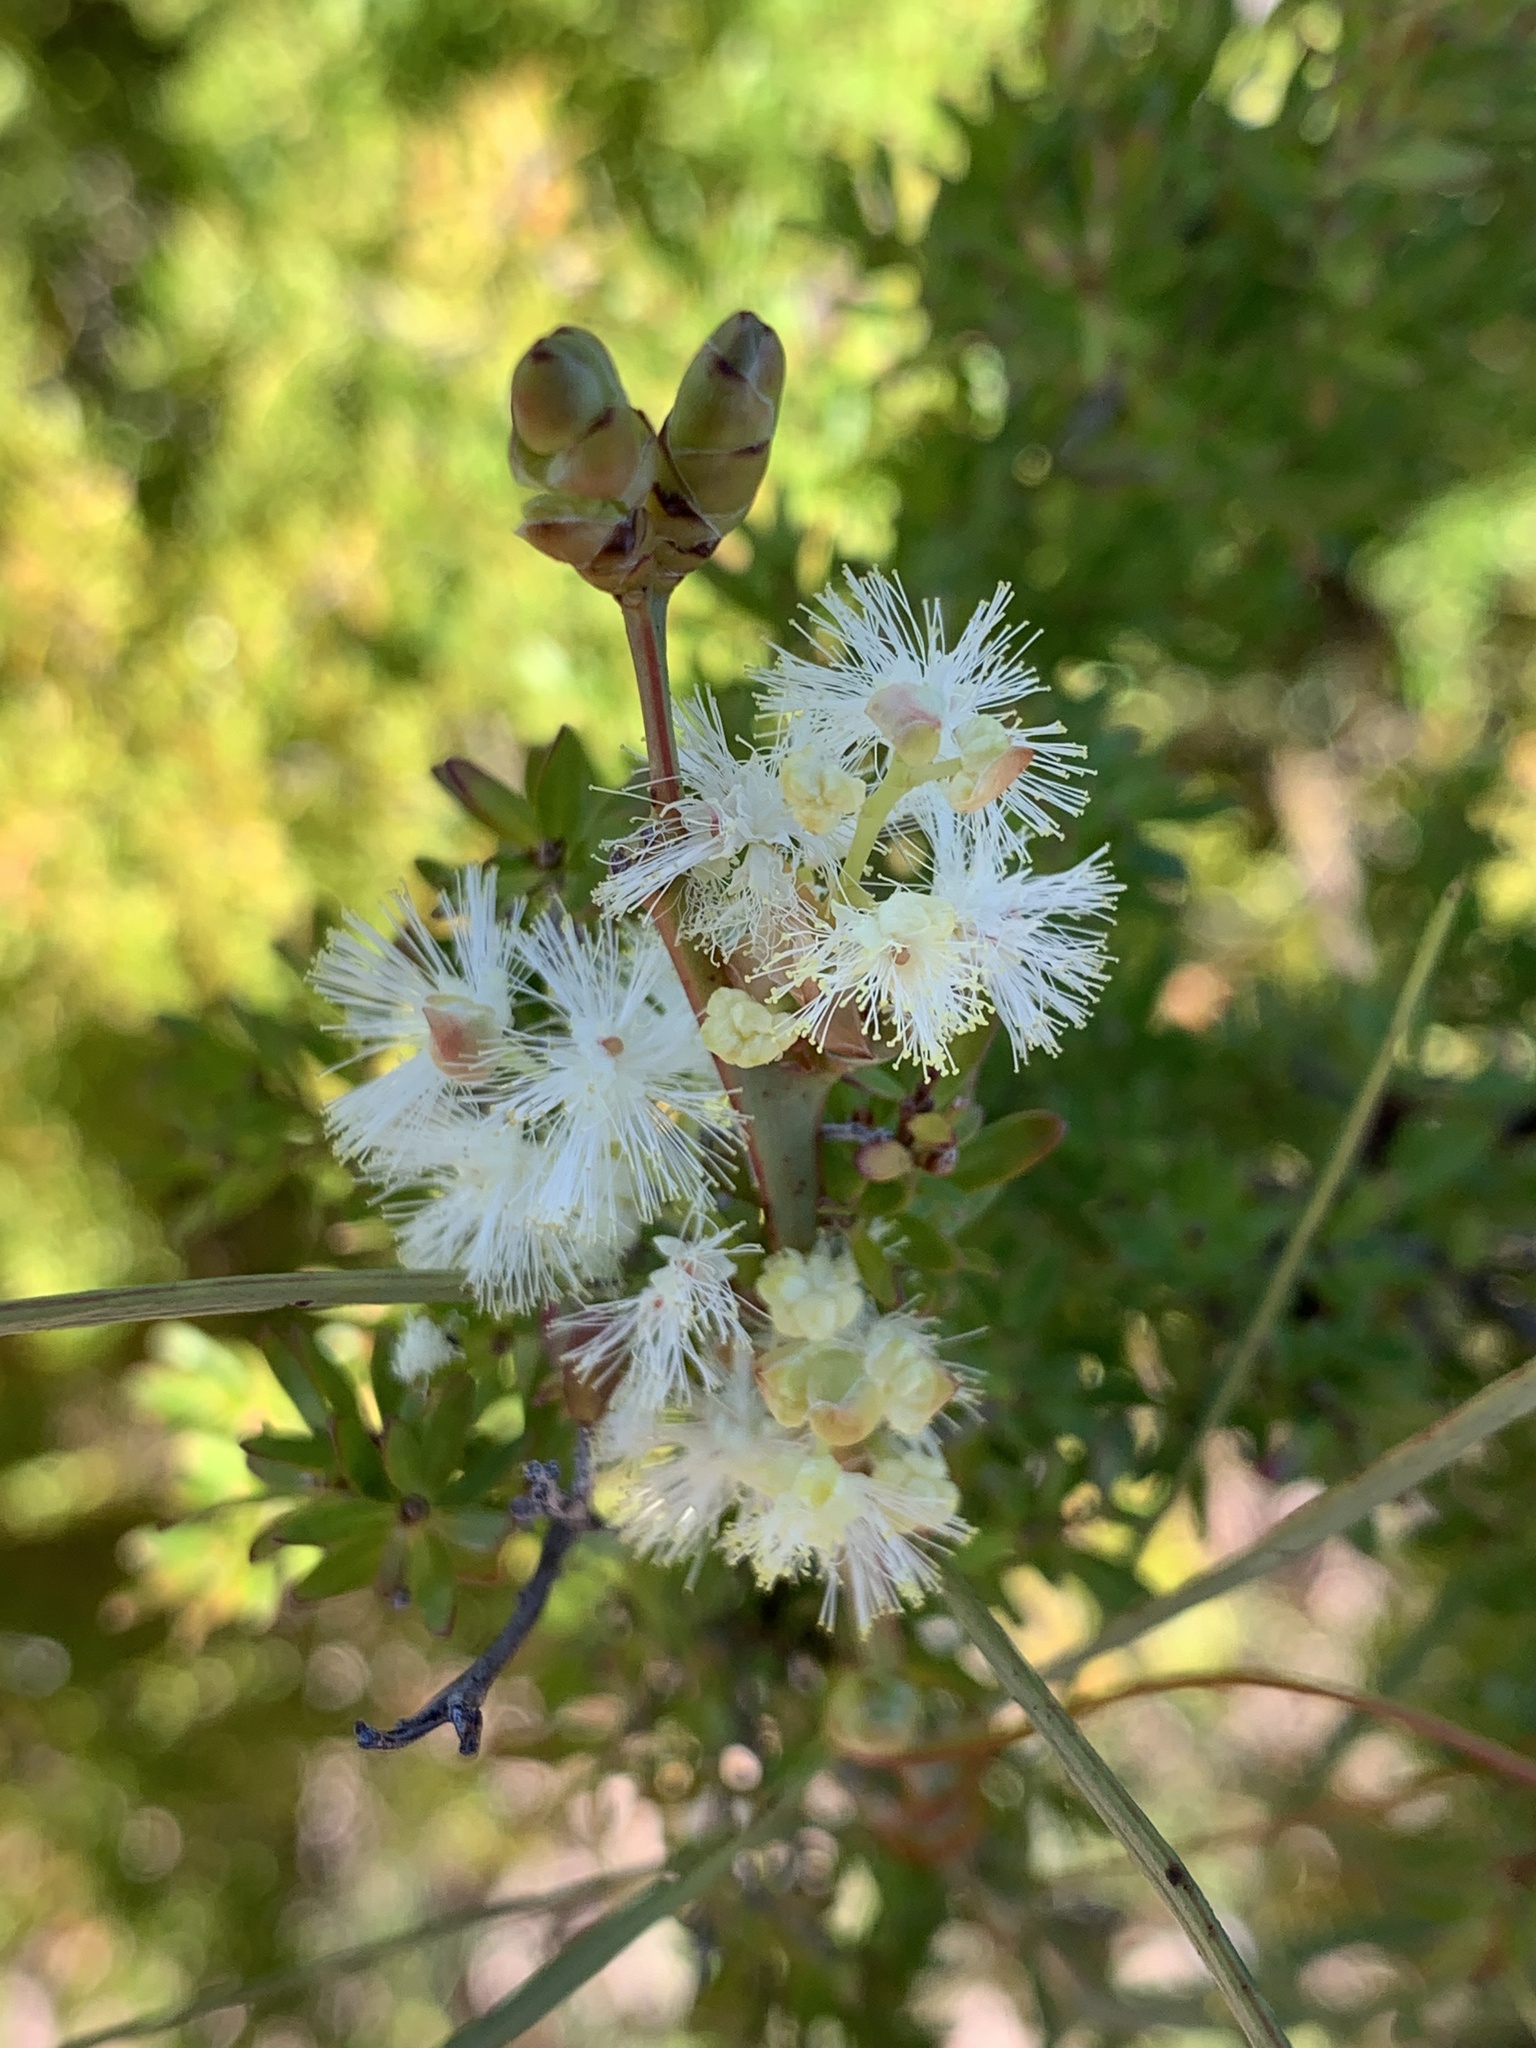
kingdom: Plantae
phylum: Tracheophyta
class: Magnoliopsida
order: Fabales
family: Fabaceae
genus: Acacia
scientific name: Acacia suaveolens
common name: Sweet acacia
